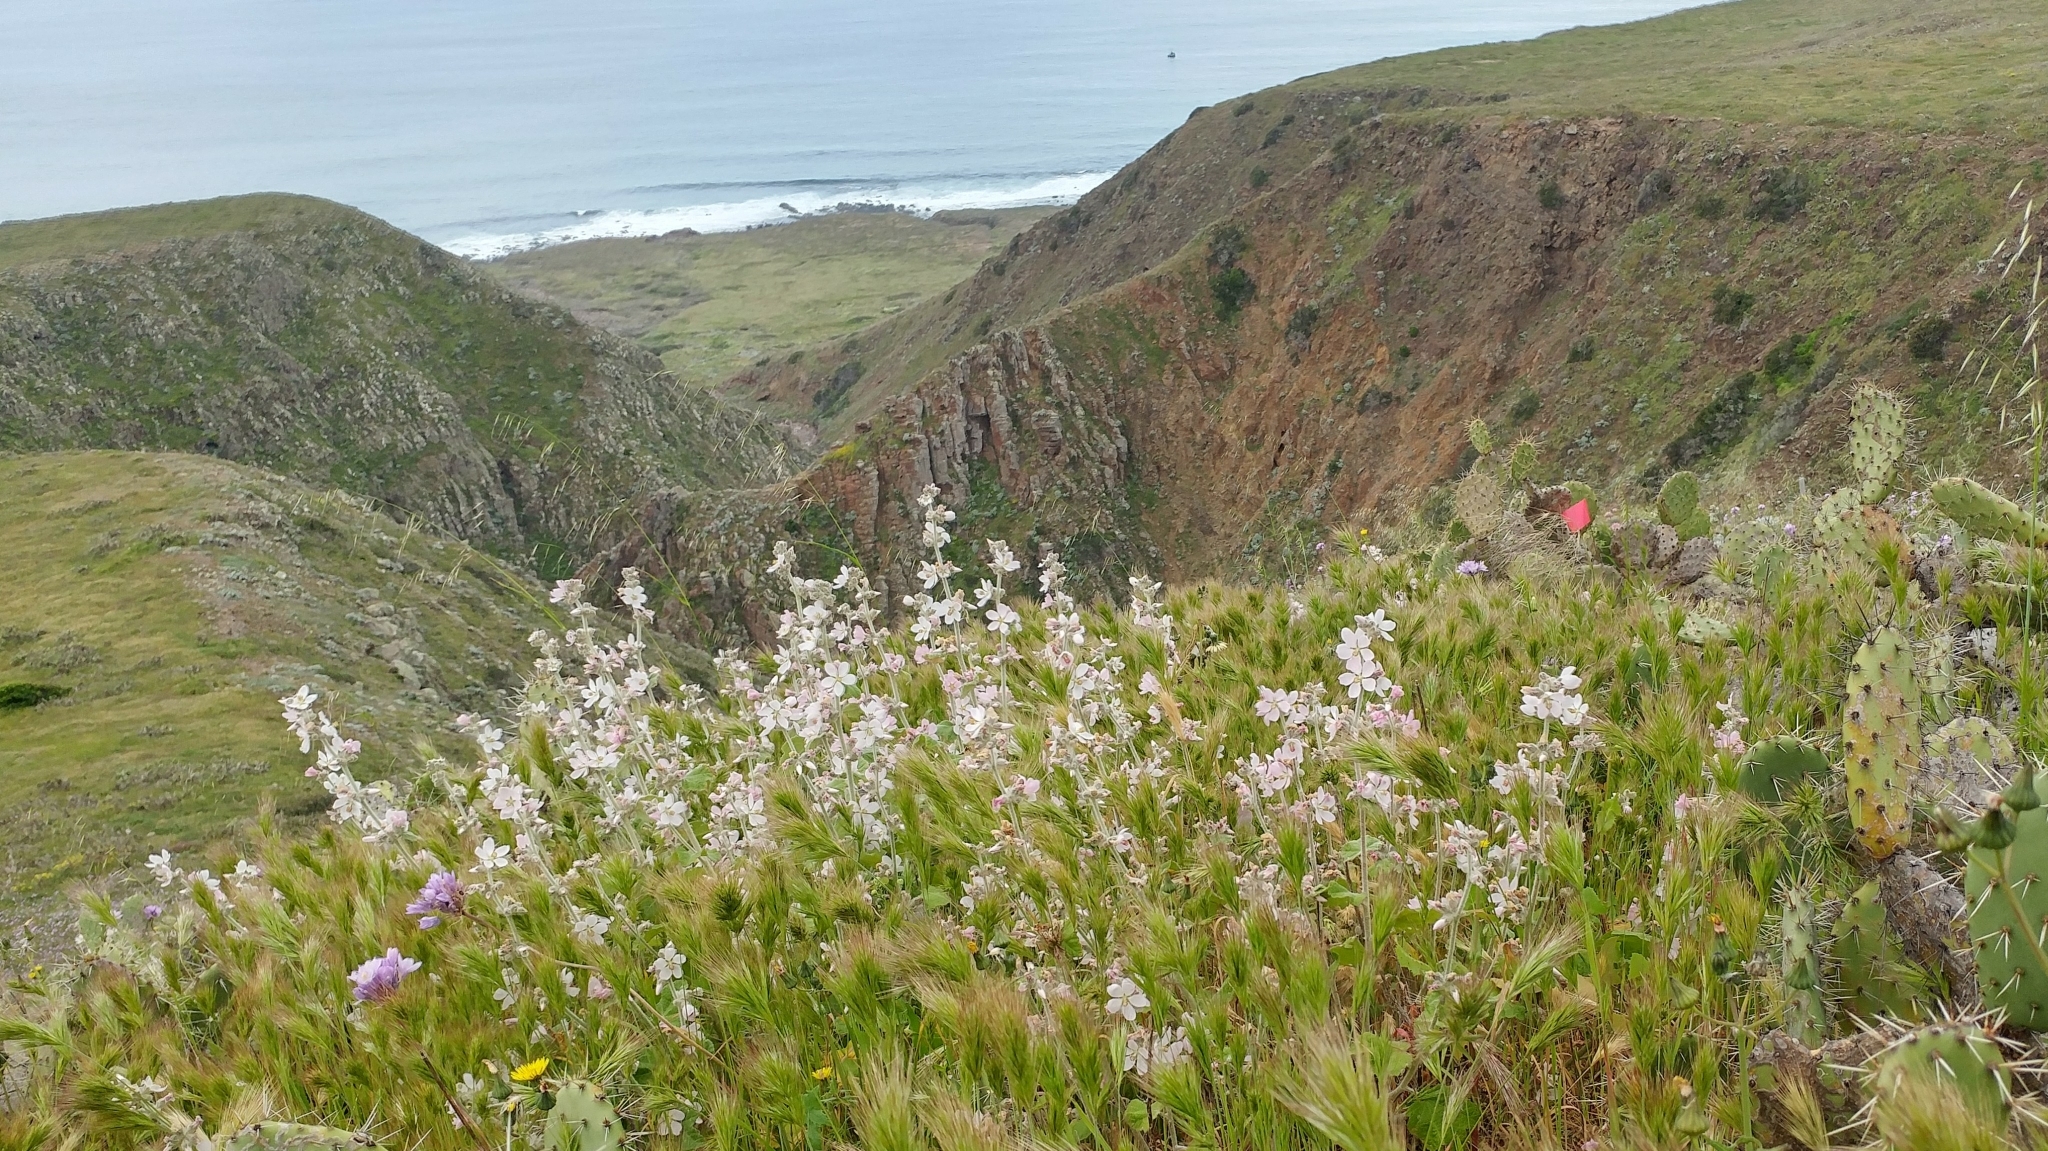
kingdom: Plantae
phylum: Tracheophyta
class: Magnoliopsida
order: Malvales
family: Malvaceae
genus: Malacothamnus
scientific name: Malacothamnus clementinus
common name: San clemente island bush-mallow
